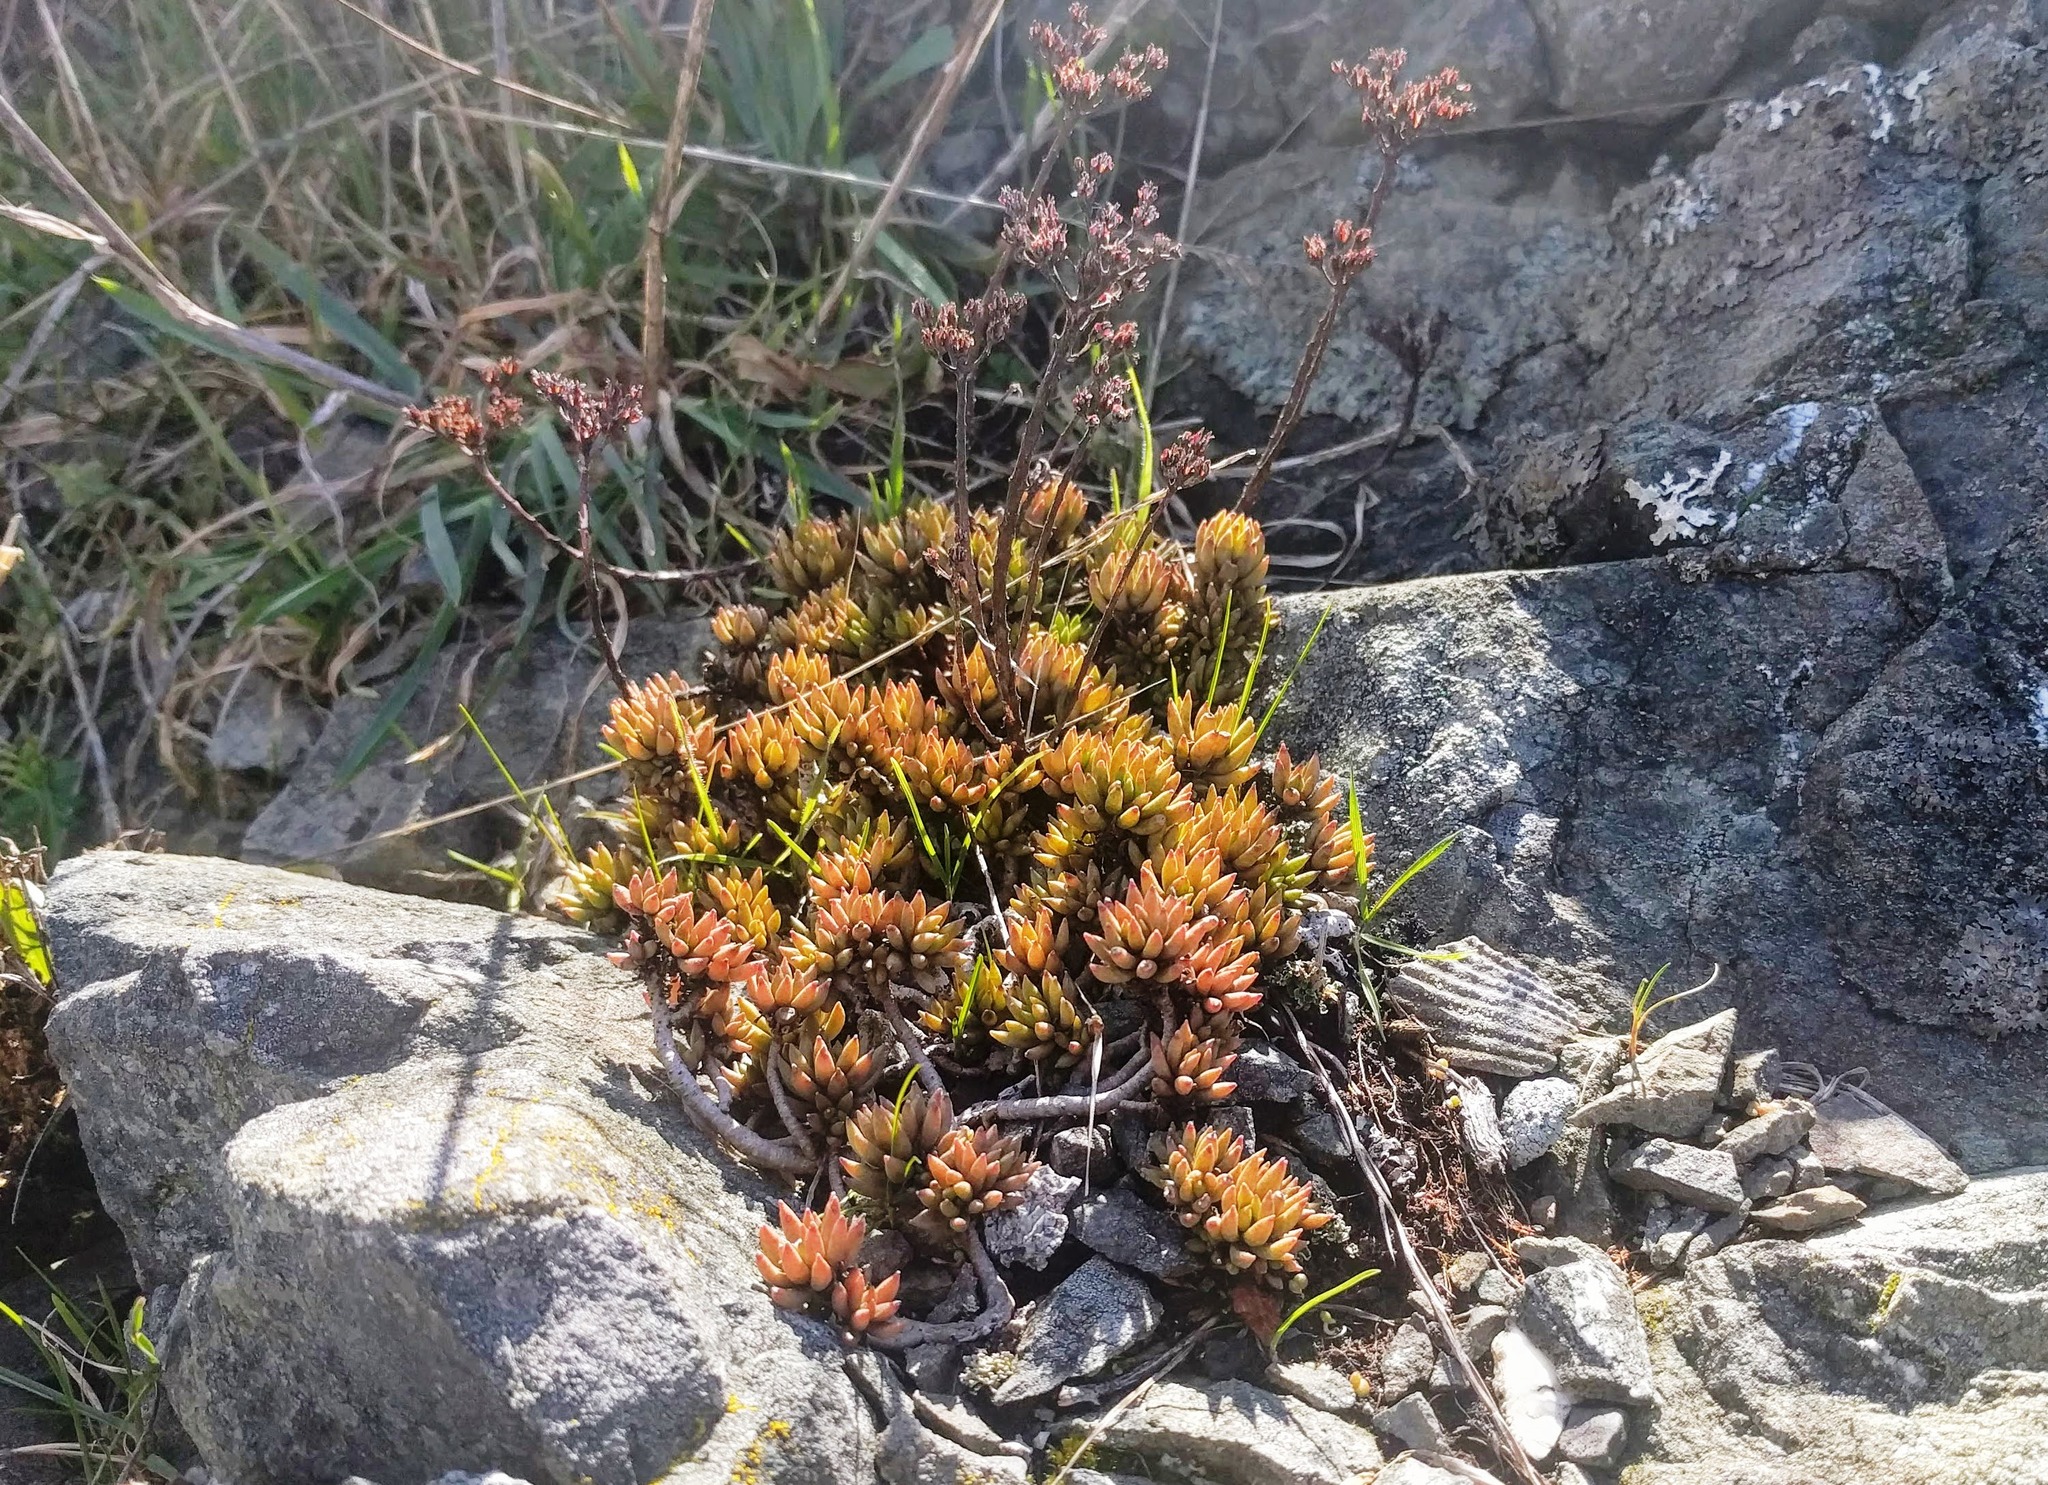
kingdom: Plantae
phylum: Tracheophyta
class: Magnoliopsida
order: Saxifragales
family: Crassulaceae
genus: Sedum
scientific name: Sedum lanceolatum
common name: Common stonecrop
